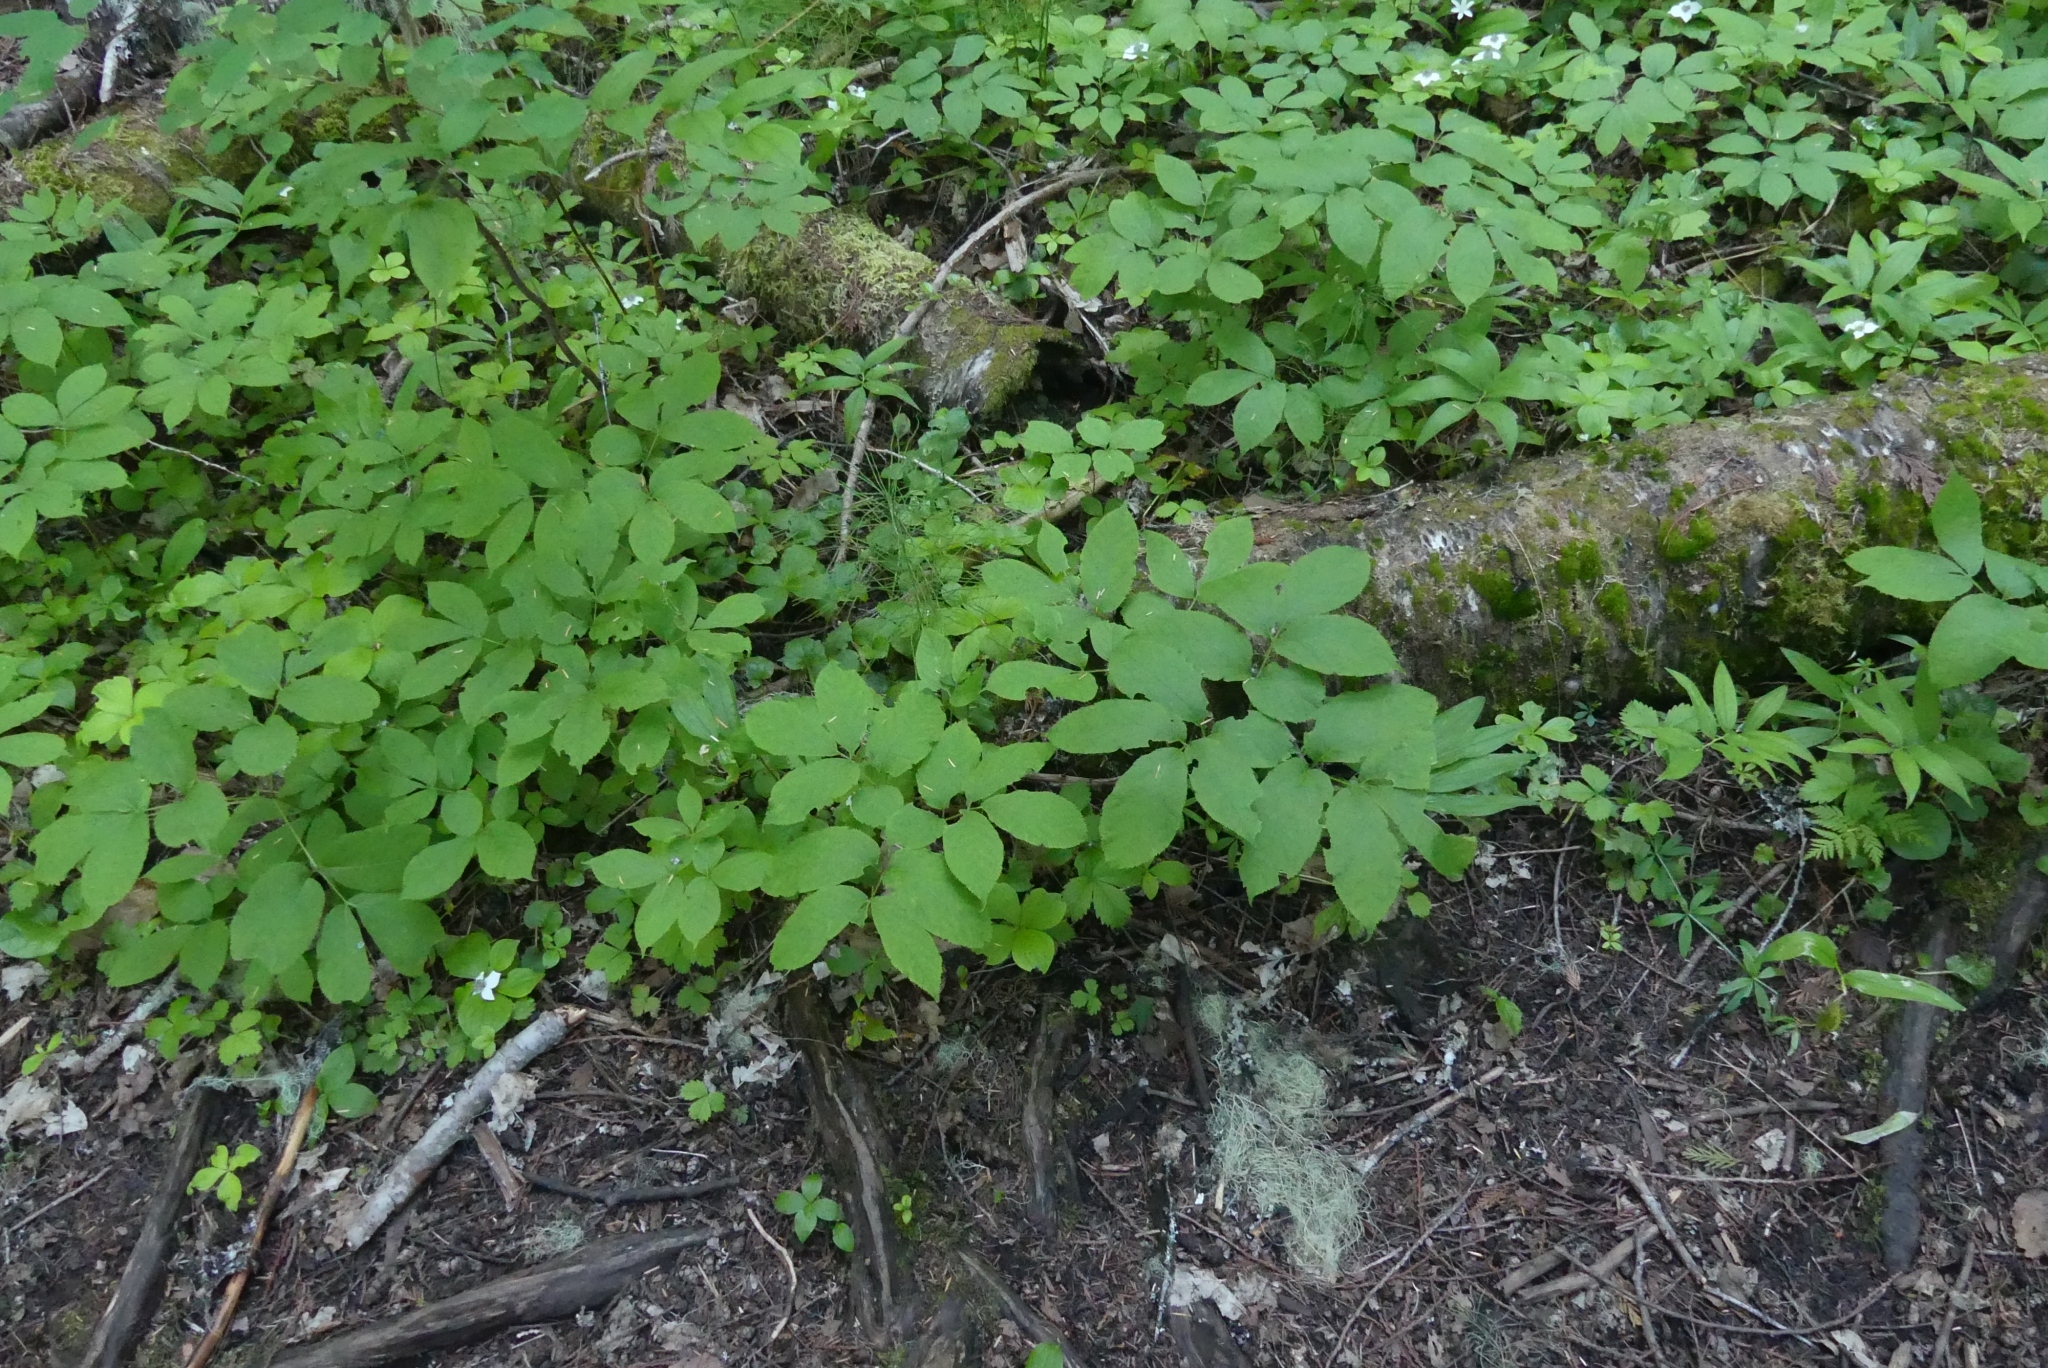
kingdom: Plantae
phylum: Tracheophyta
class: Magnoliopsida
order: Apiales
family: Araliaceae
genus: Aralia
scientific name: Aralia nudicaulis
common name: Wild sarsaparilla
